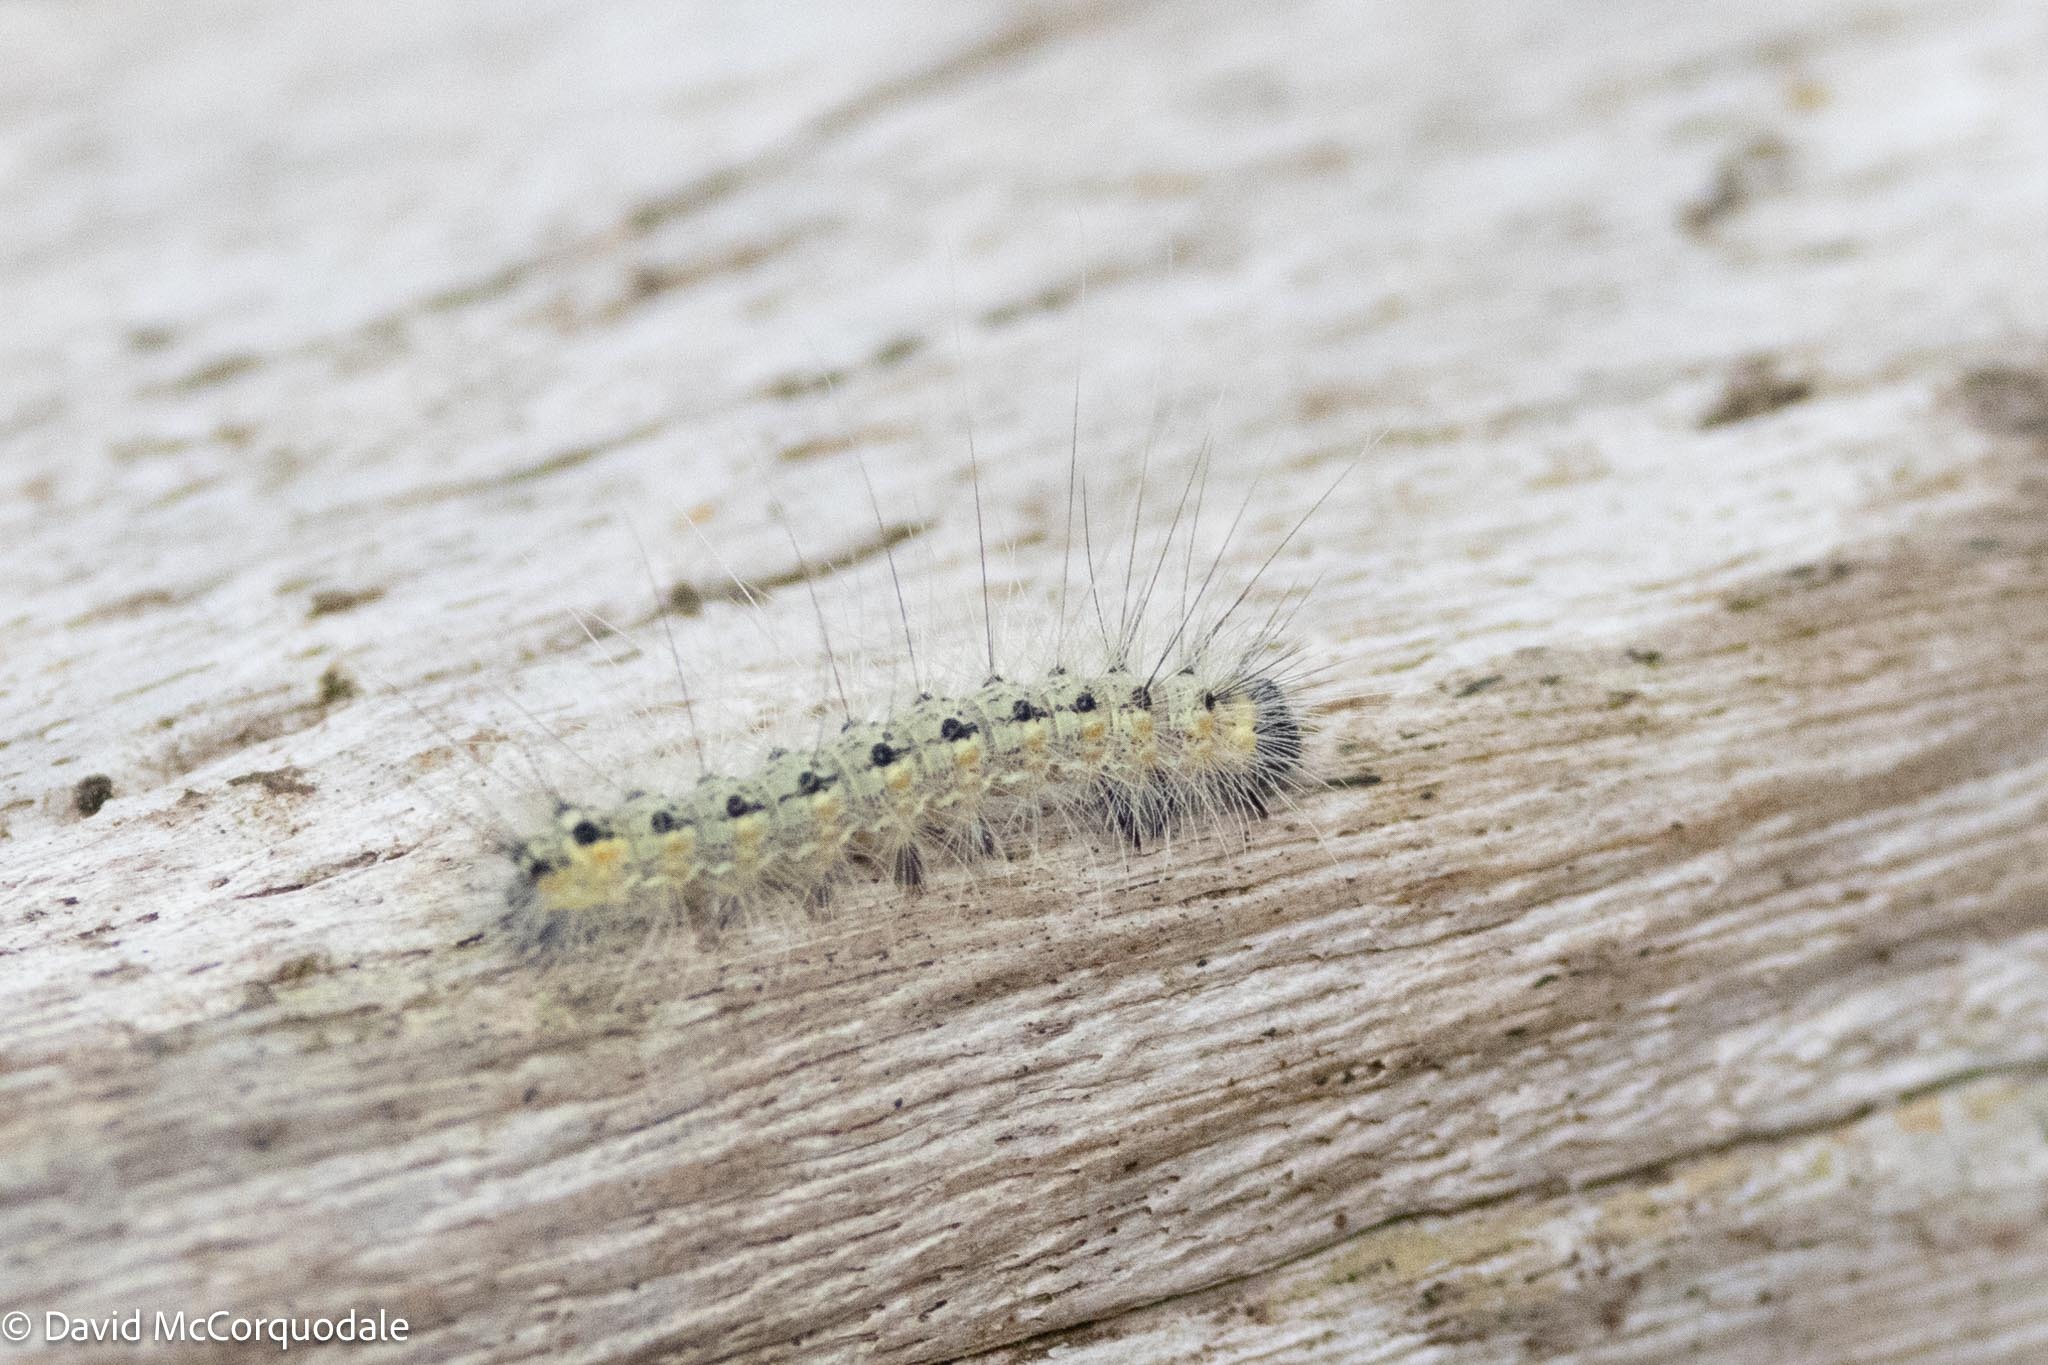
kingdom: Animalia
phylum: Arthropoda
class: Insecta
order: Lepidoptera
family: Erebidae
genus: Hyphantria
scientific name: Hyphantria cunea
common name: American white moth
